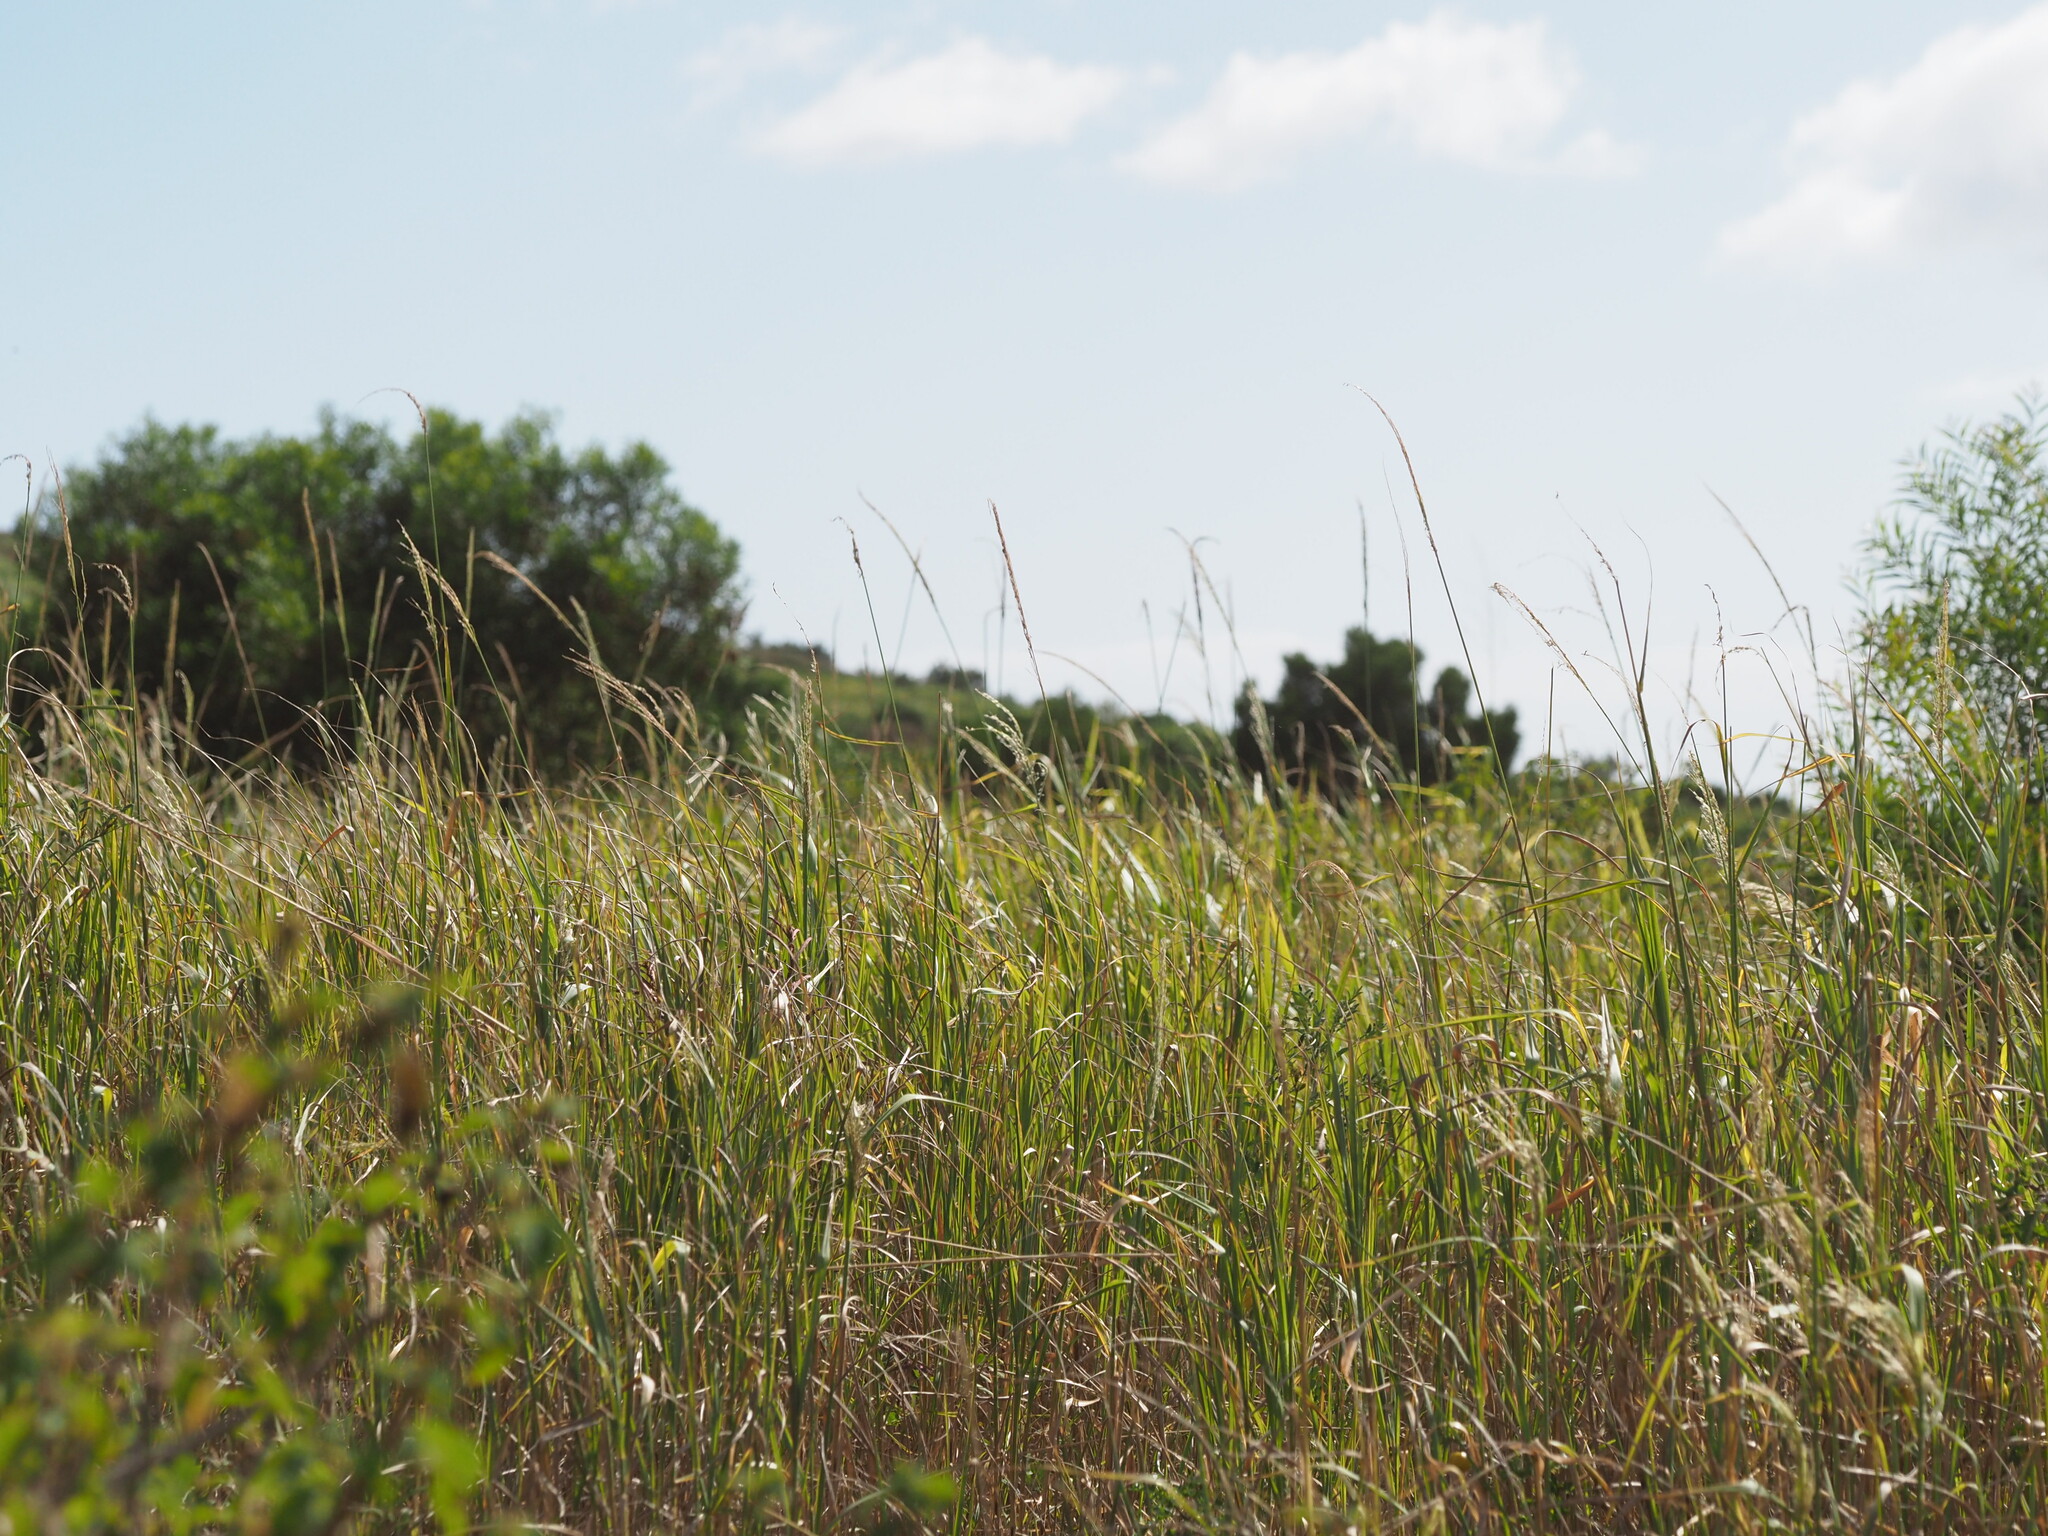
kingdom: Plantae
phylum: Tracheophyta
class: Liliopsida
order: Poales
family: Poaceae
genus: Digitaria
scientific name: Digitaria insularis
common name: Sourgrass
